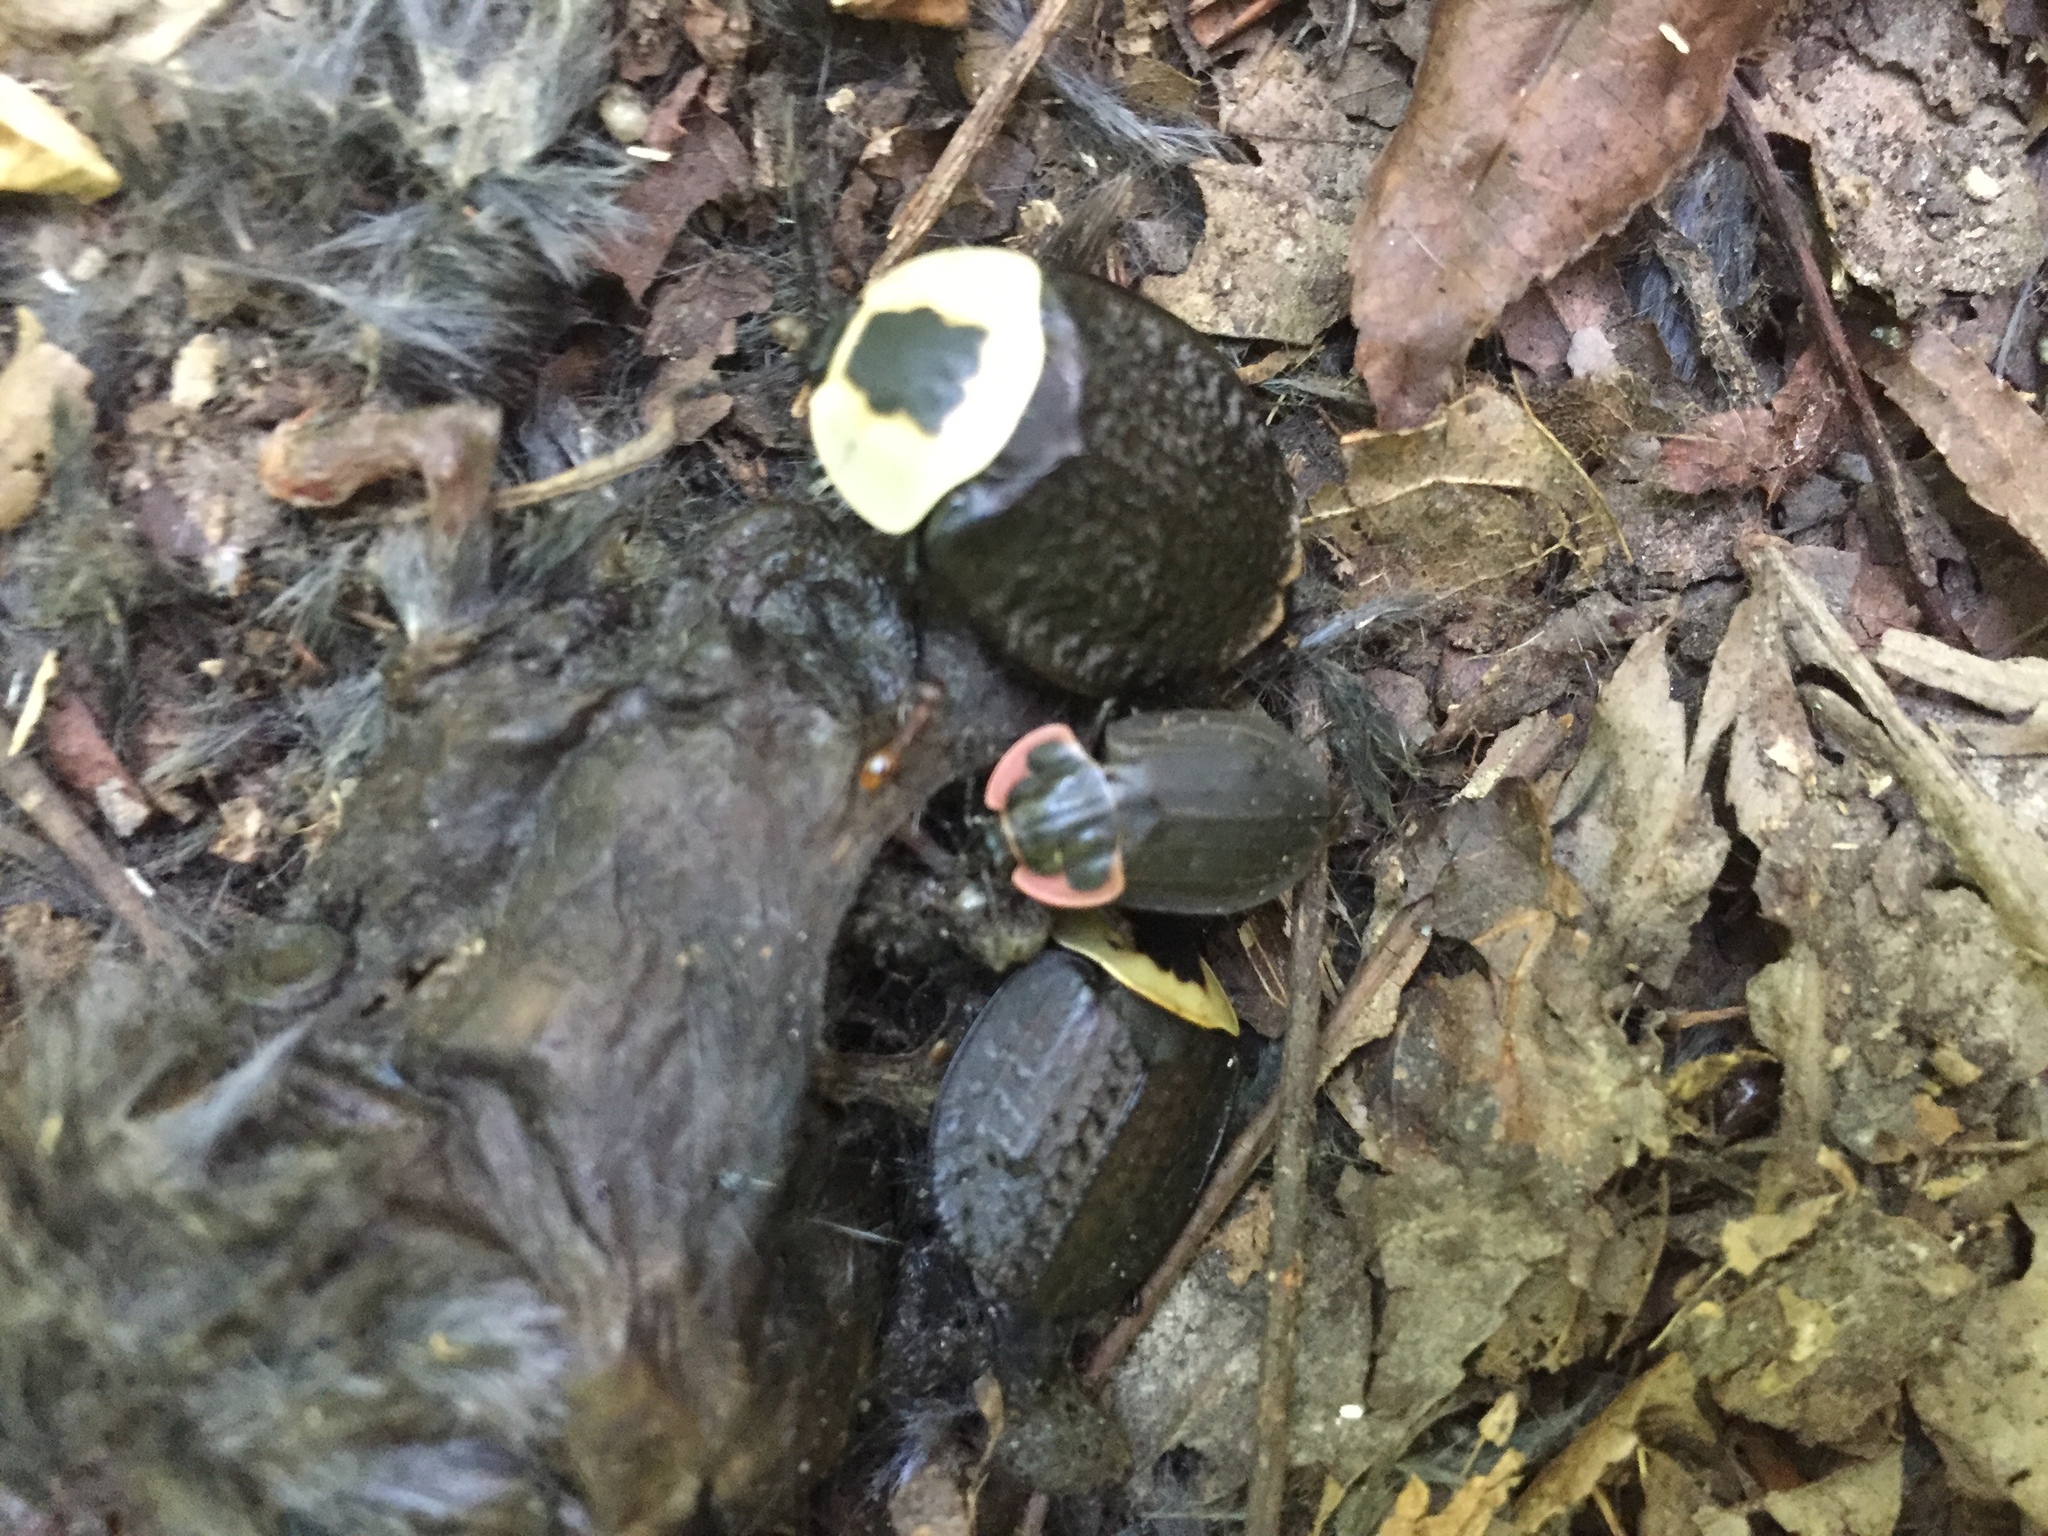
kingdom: Animalia
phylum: Arthropoda
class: Insecta
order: Coleoptera
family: Staphylinidae
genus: Oiceoptoma
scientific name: Oiceoptoma noveboracense
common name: Margined carrion beetle
